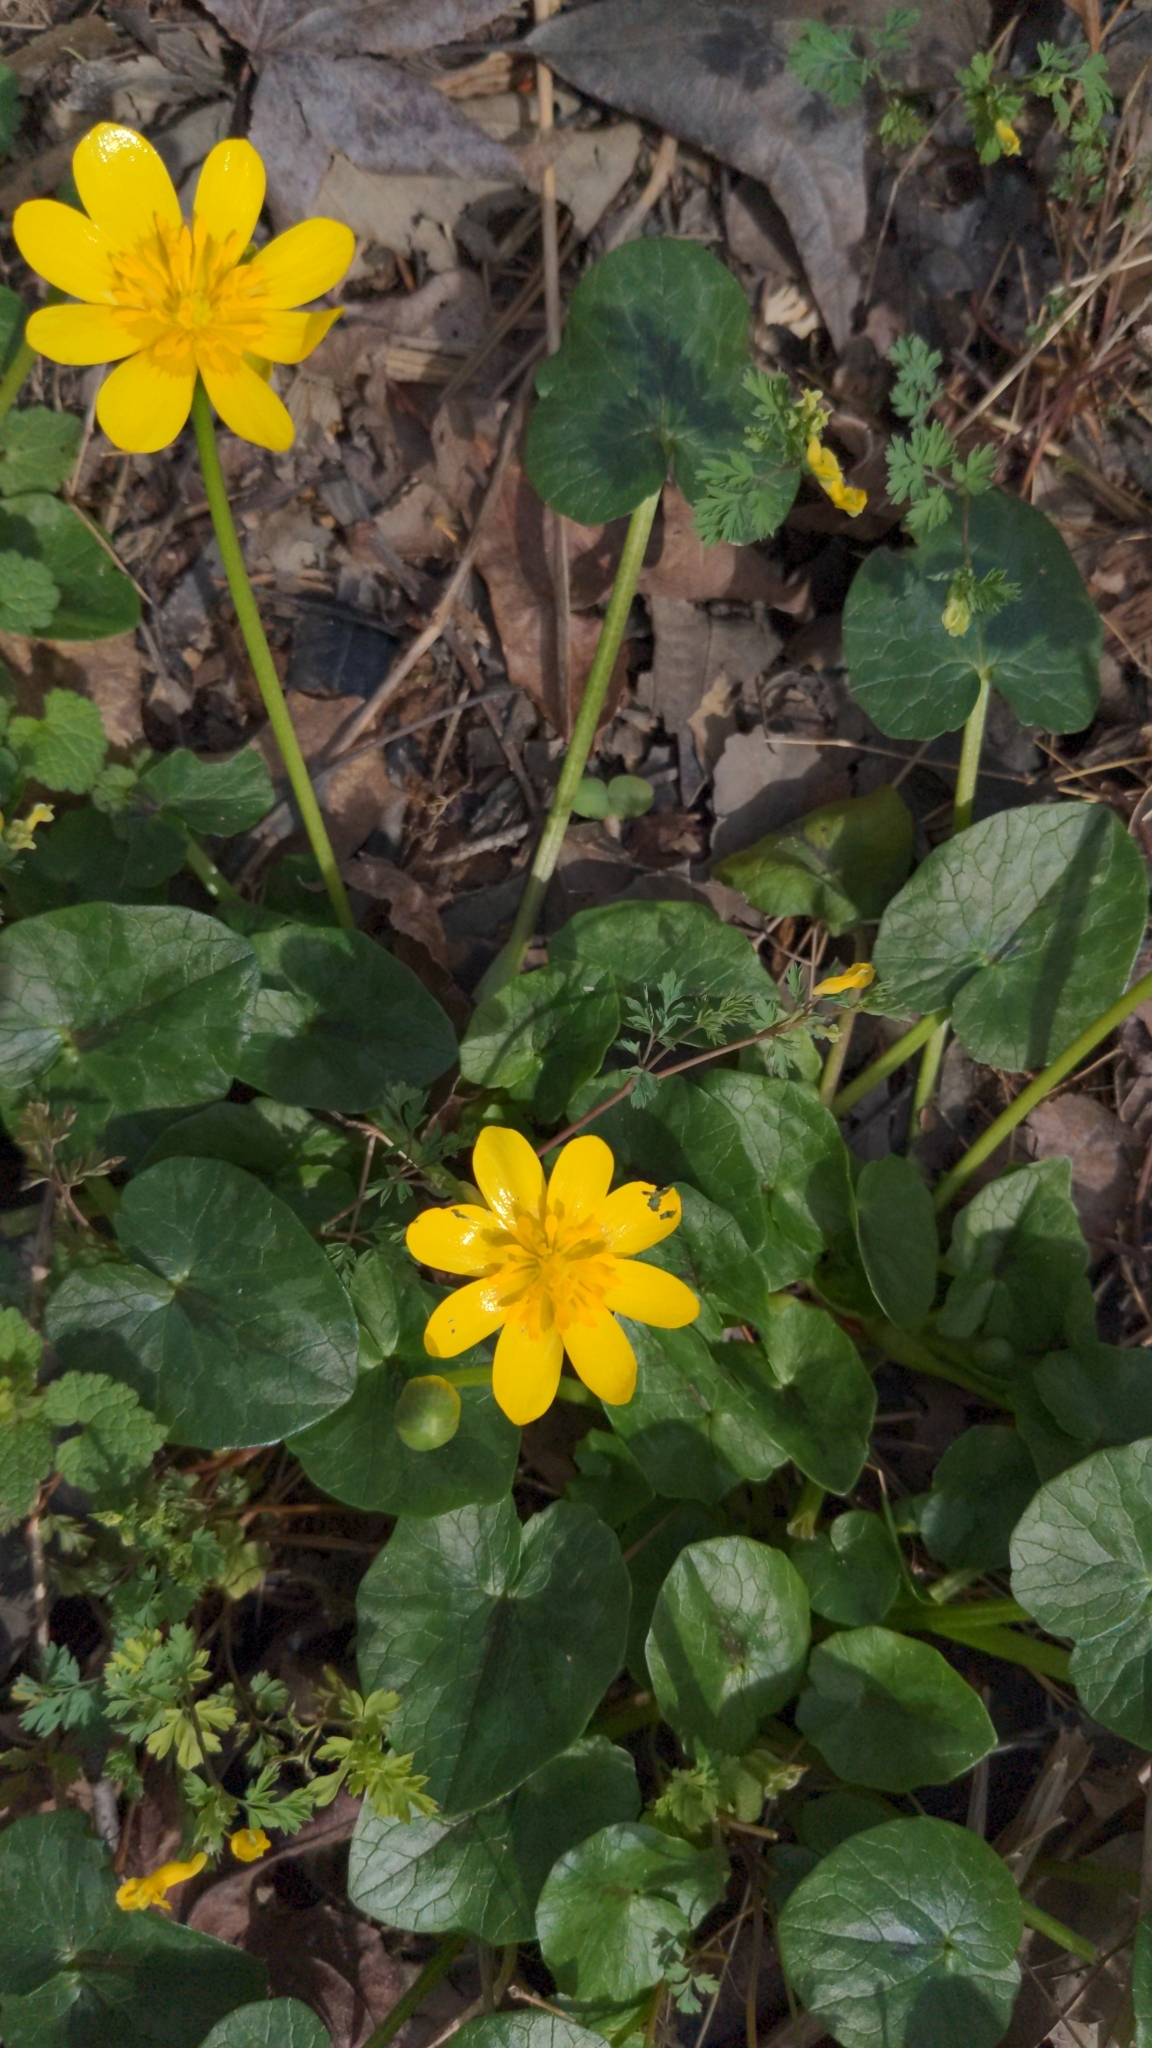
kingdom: Plantae
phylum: Tracheophyta
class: Magnoliopsida
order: Ranunculales
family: Ranunculaceae
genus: Ficaria
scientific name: Ficaria verna
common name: Lesser celandine
